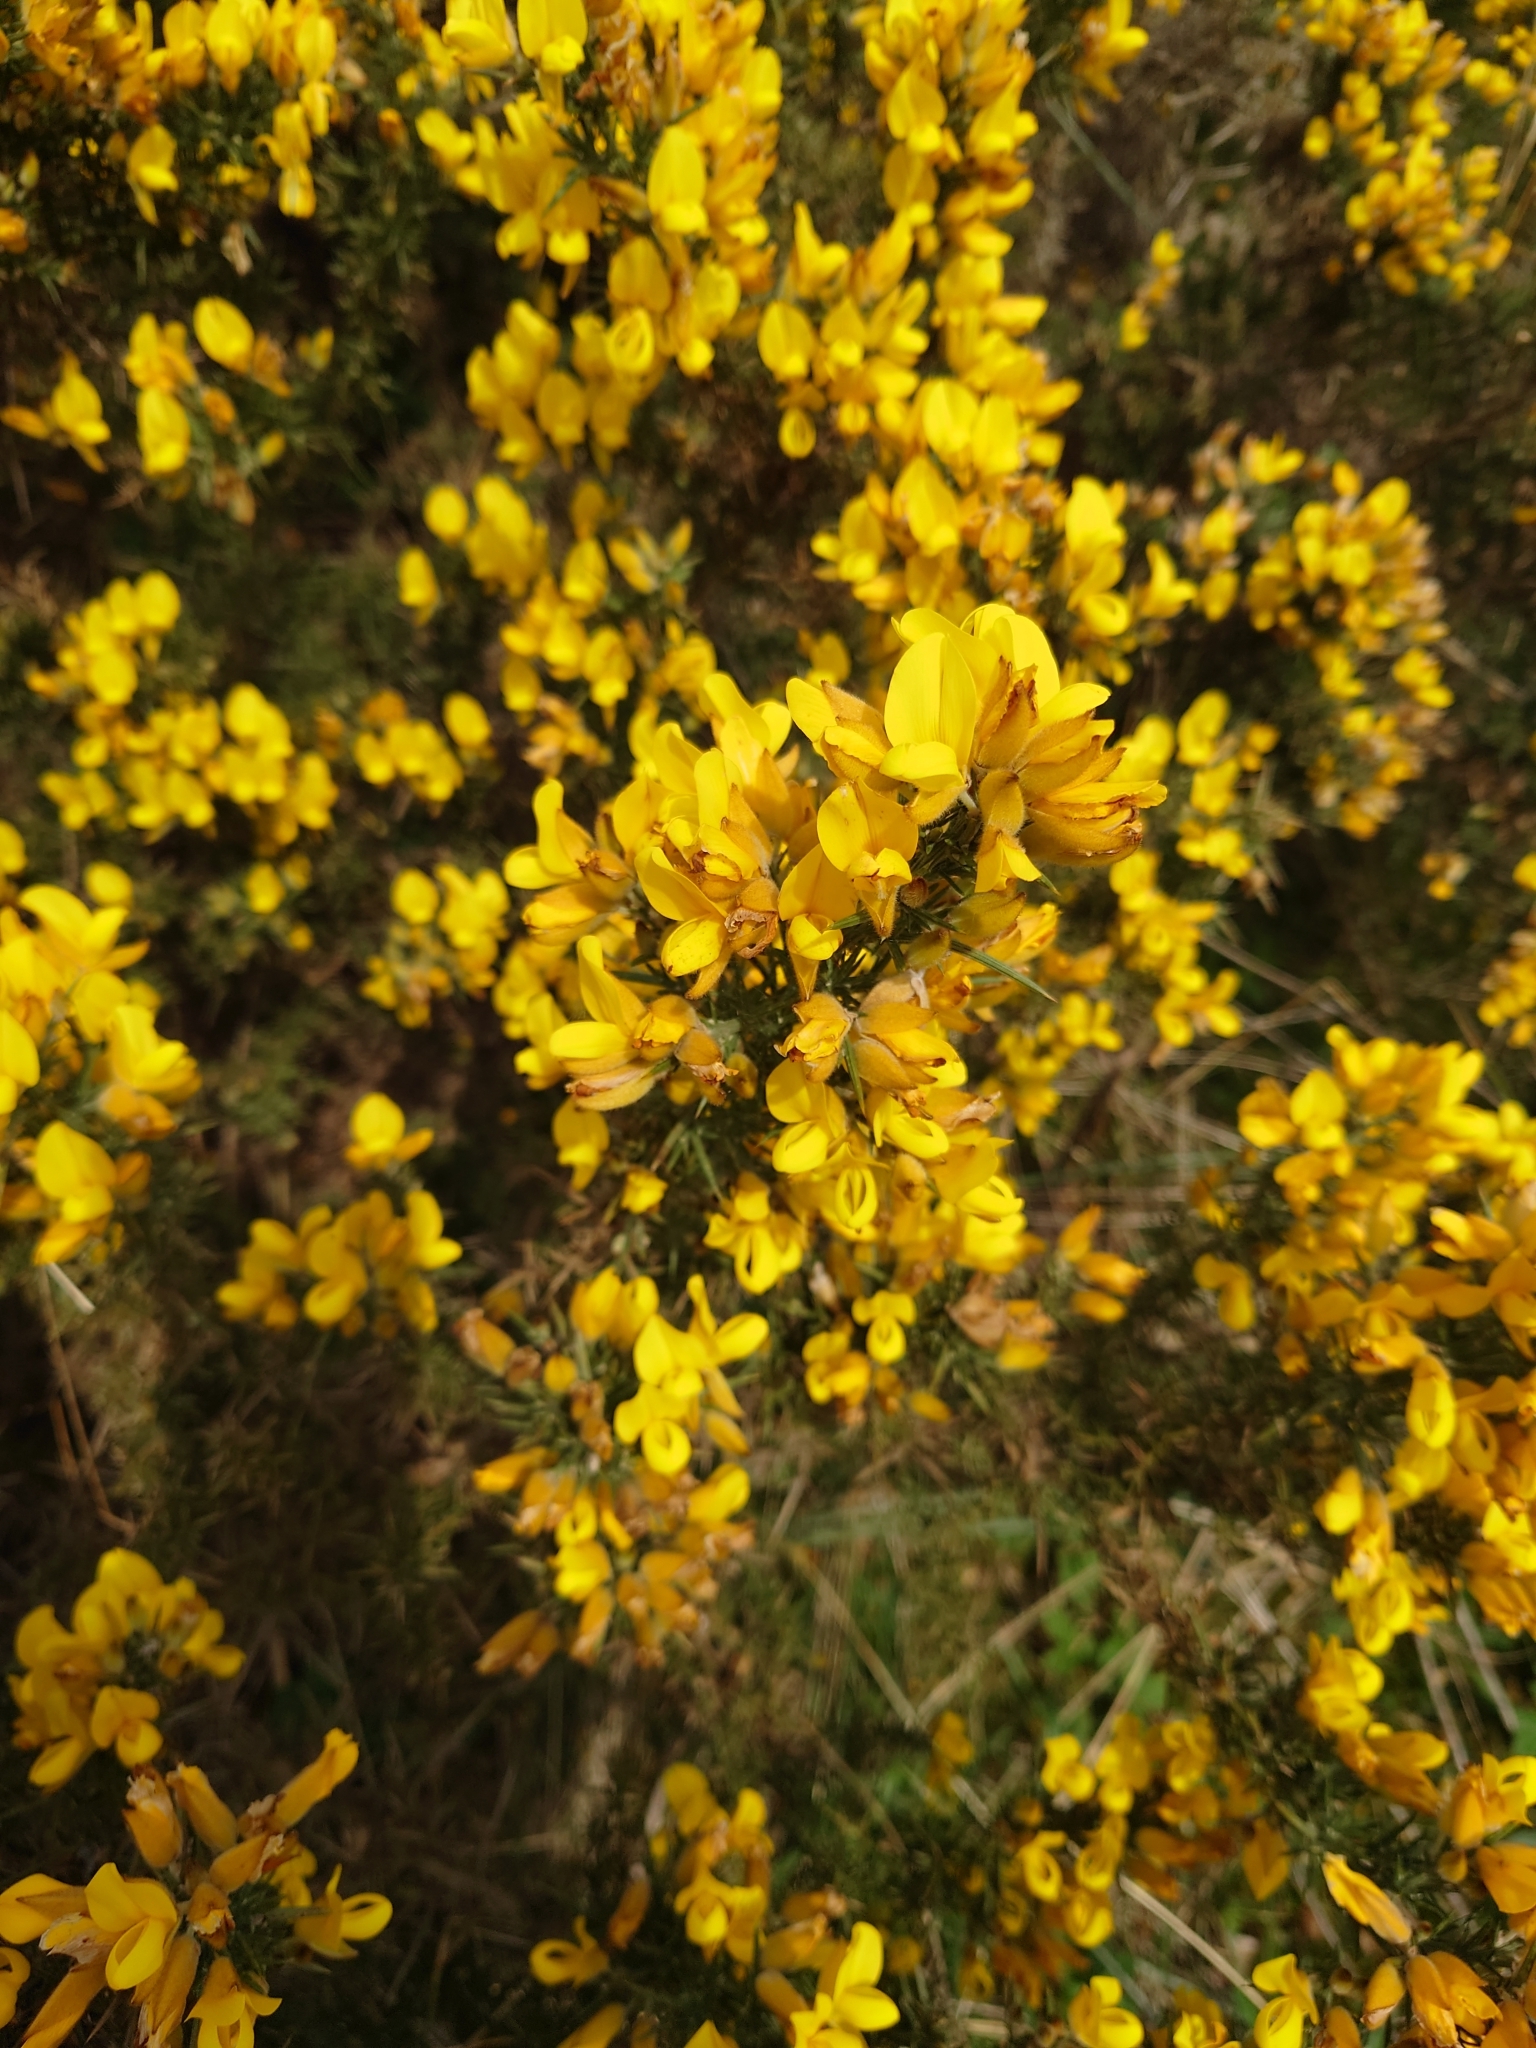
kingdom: Plantae
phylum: Tracheophyta
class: Magnoliopsida
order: Fabales
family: Fabaceae
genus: Ulex
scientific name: Ulex europaeus
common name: Common gorse
